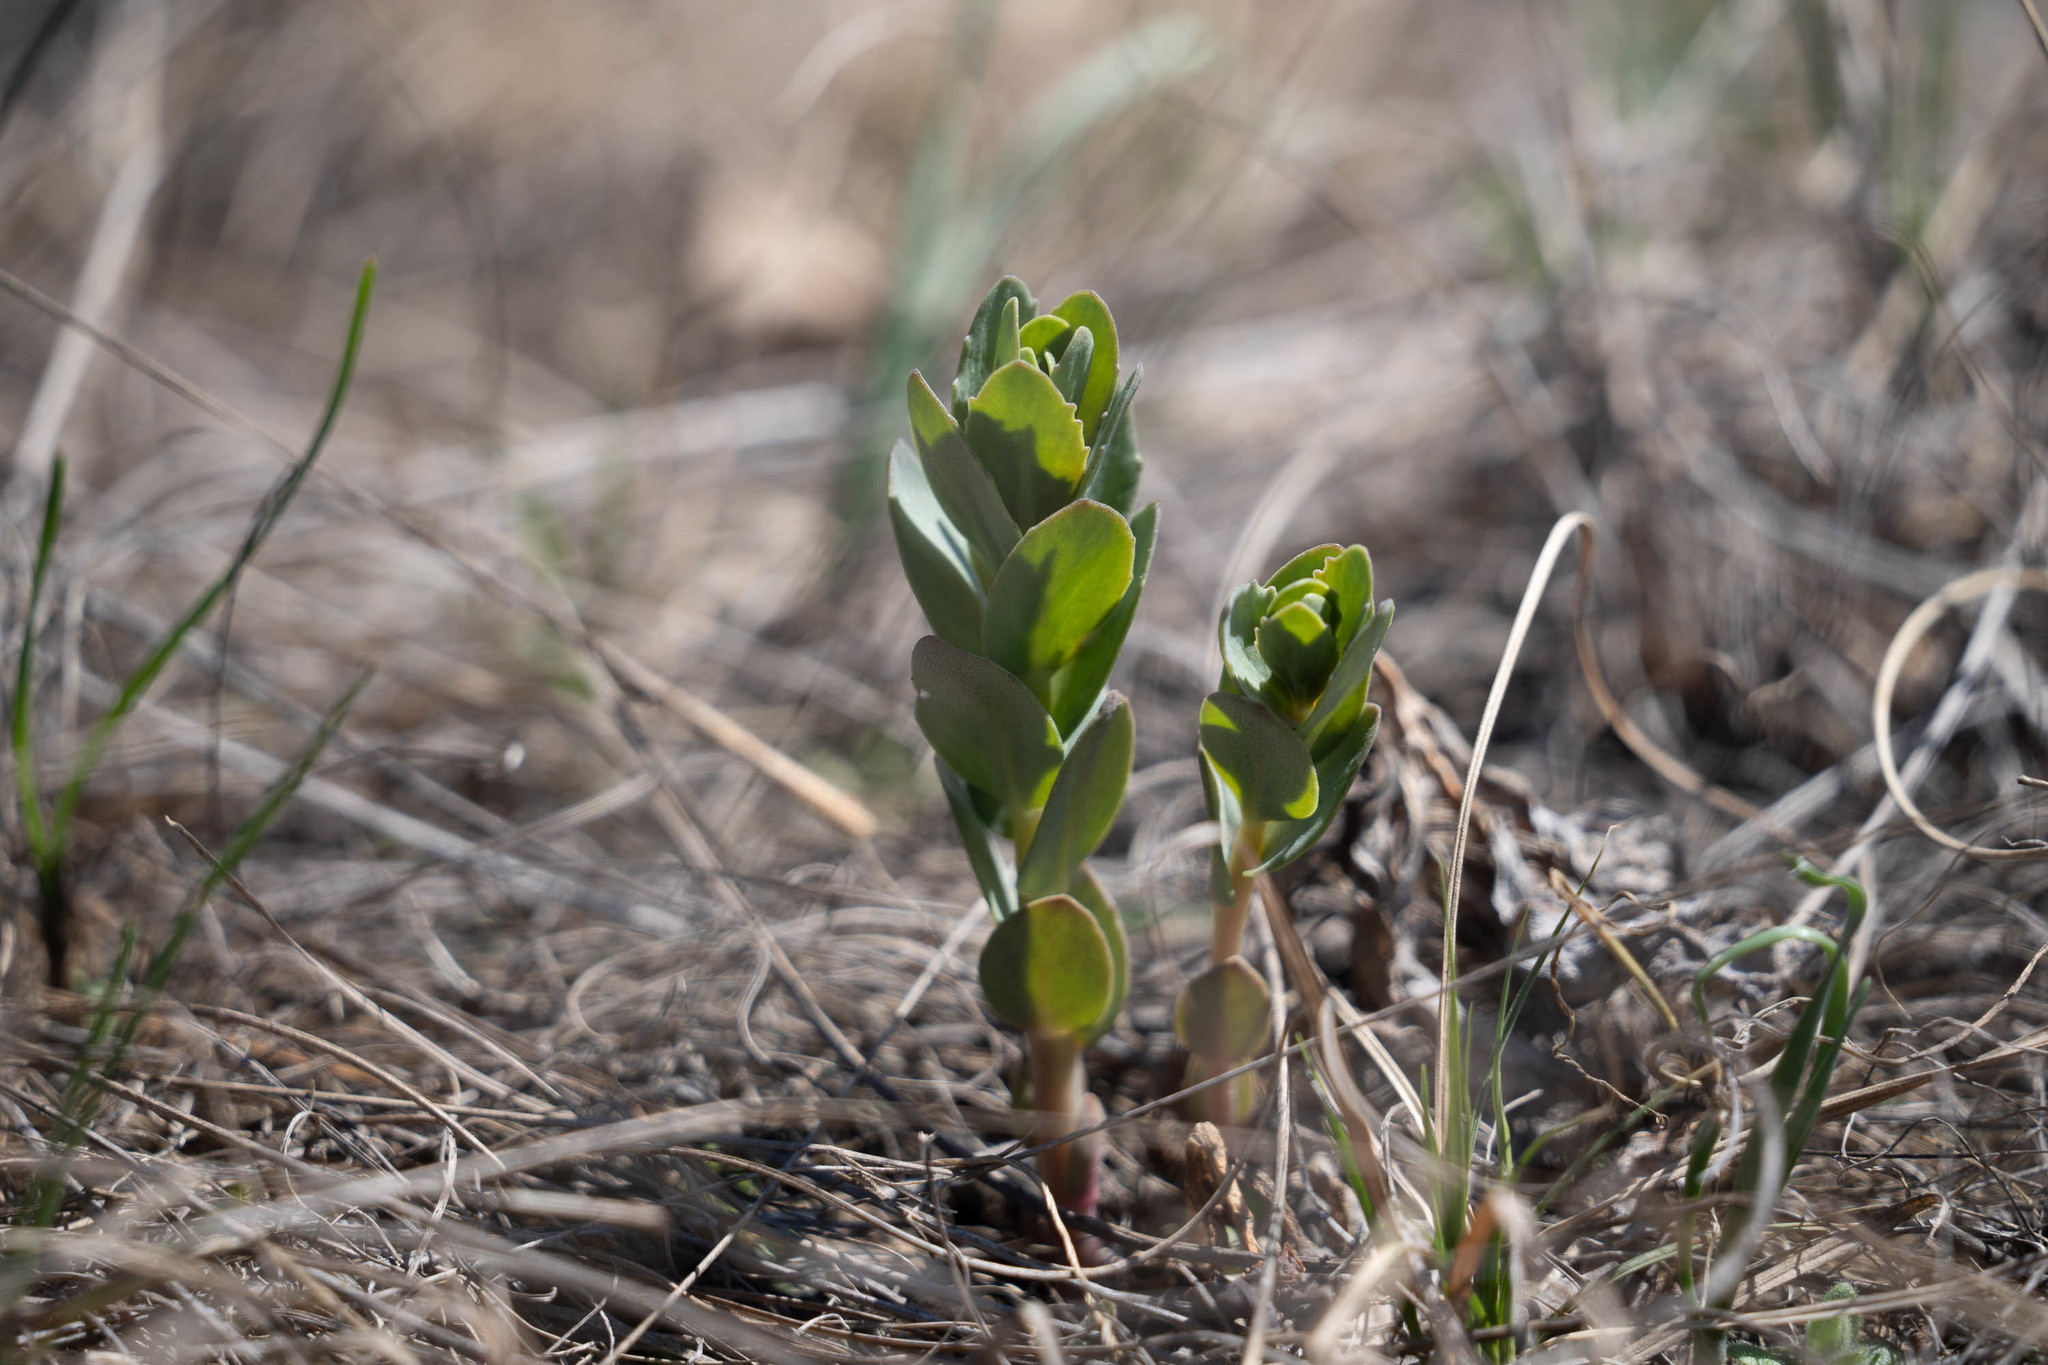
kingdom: Plantae
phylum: Tracheophyta
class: Magnoliopsida
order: Saxifragales
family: Crassulaceae
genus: Hylotelephium
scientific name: Hylotelephium telephium
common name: Live-forever
